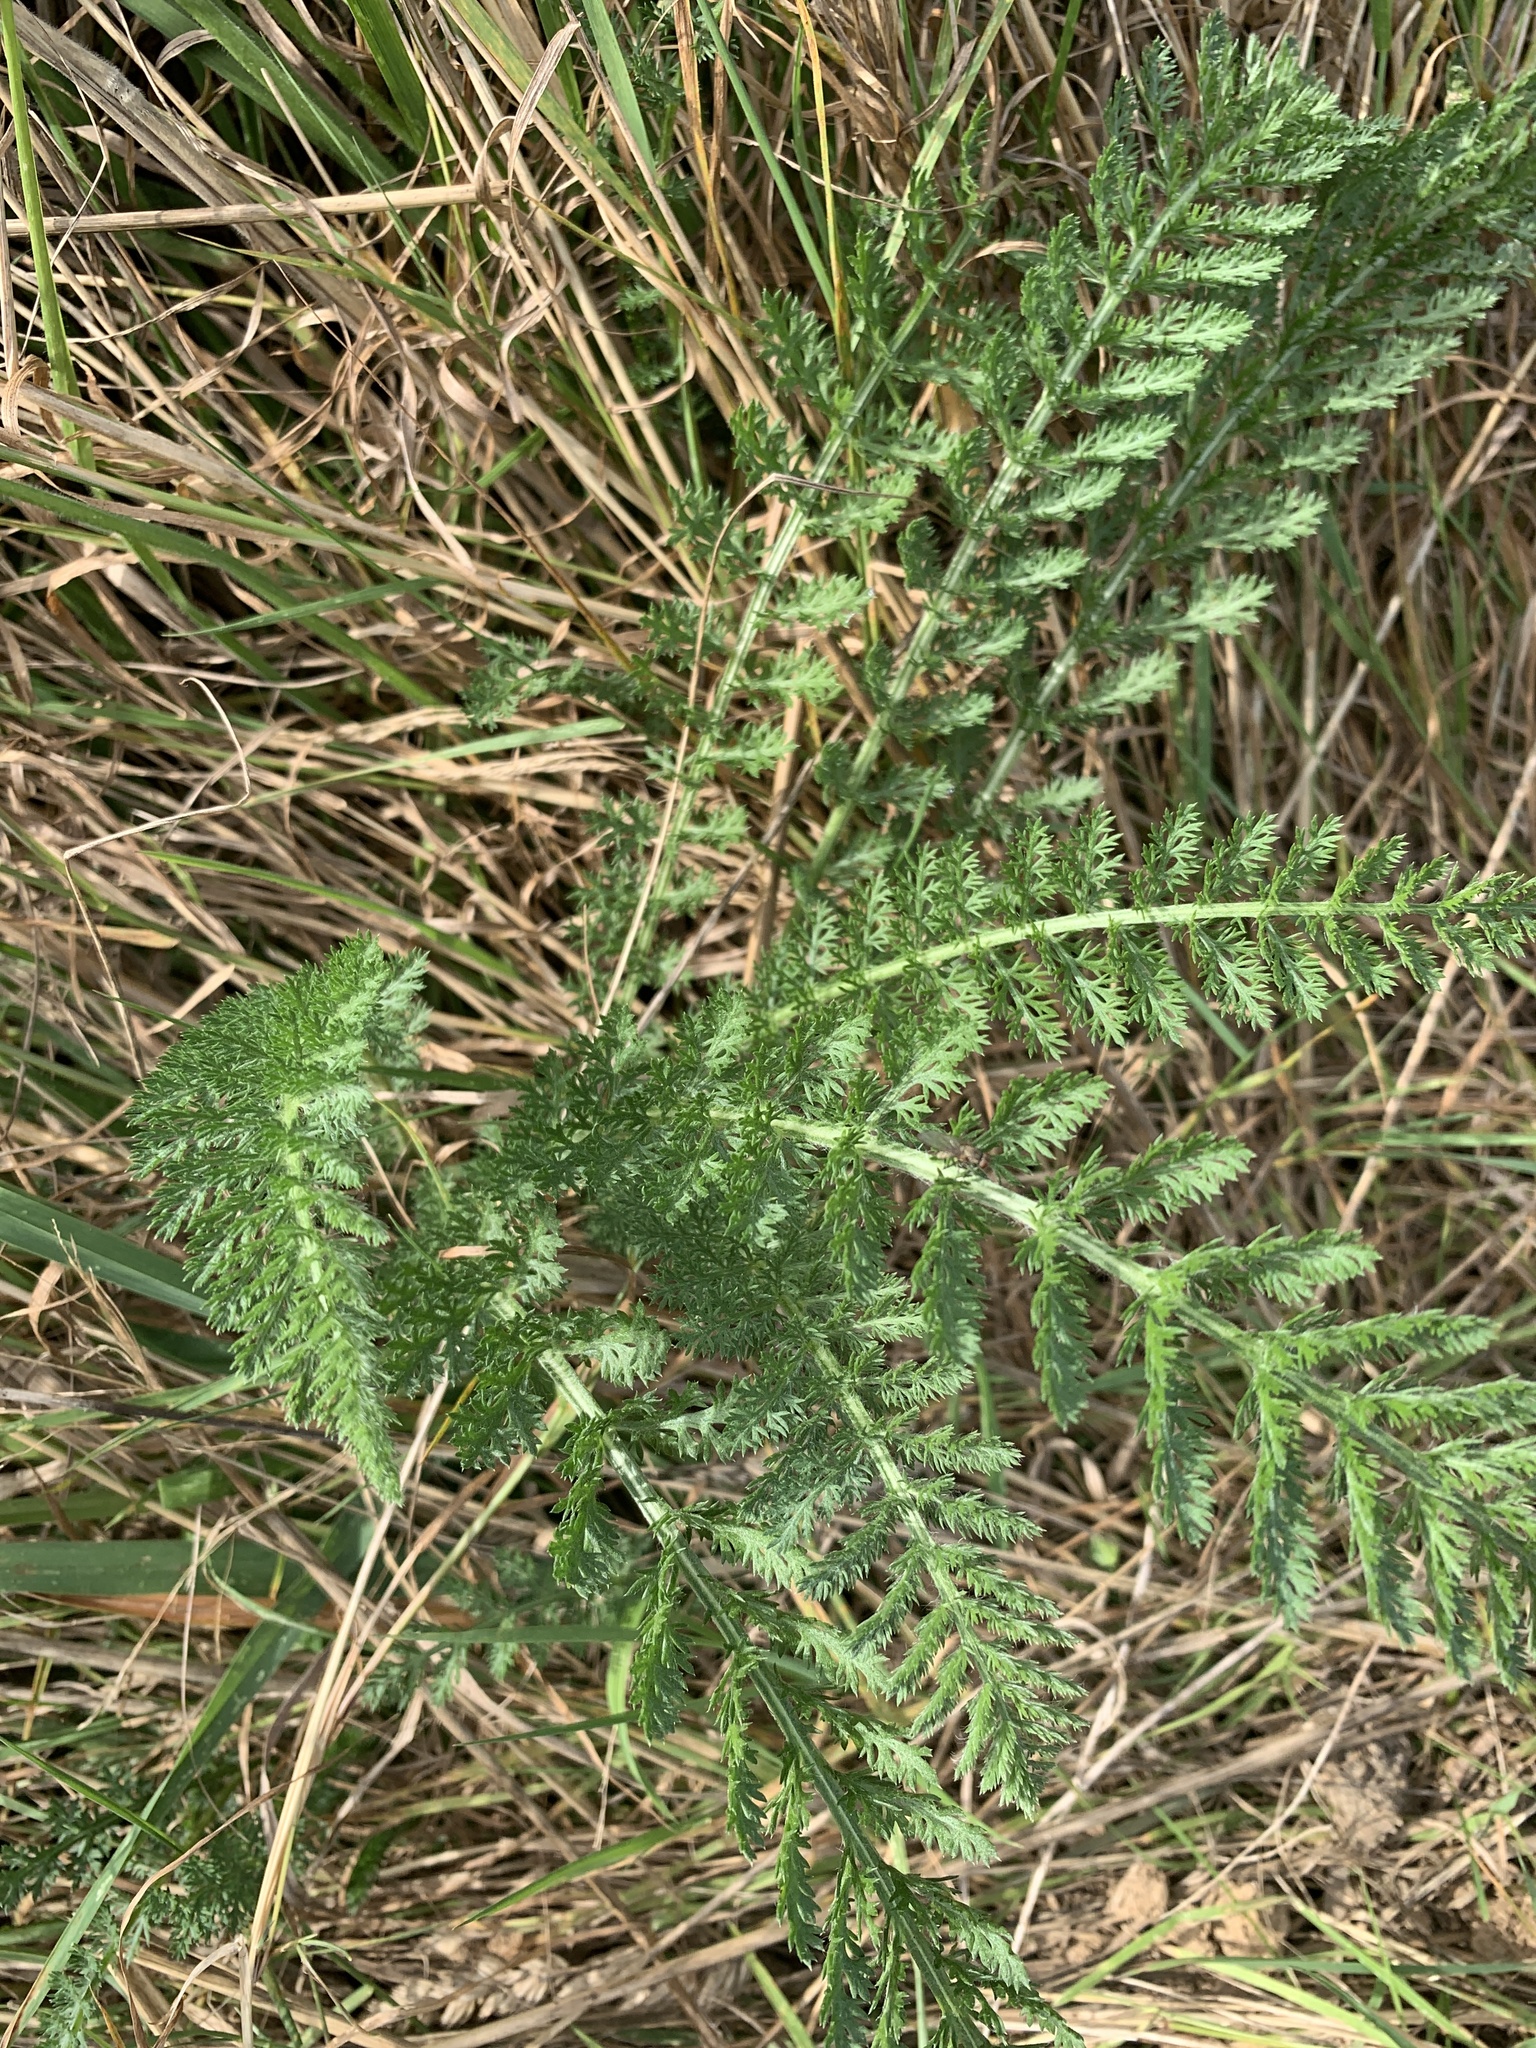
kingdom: Plantae
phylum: Tracheophyta
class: Magnoliopsida
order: Asterales
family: Asteraceae
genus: Achillea
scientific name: Achillea millefolium
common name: Yarrow
